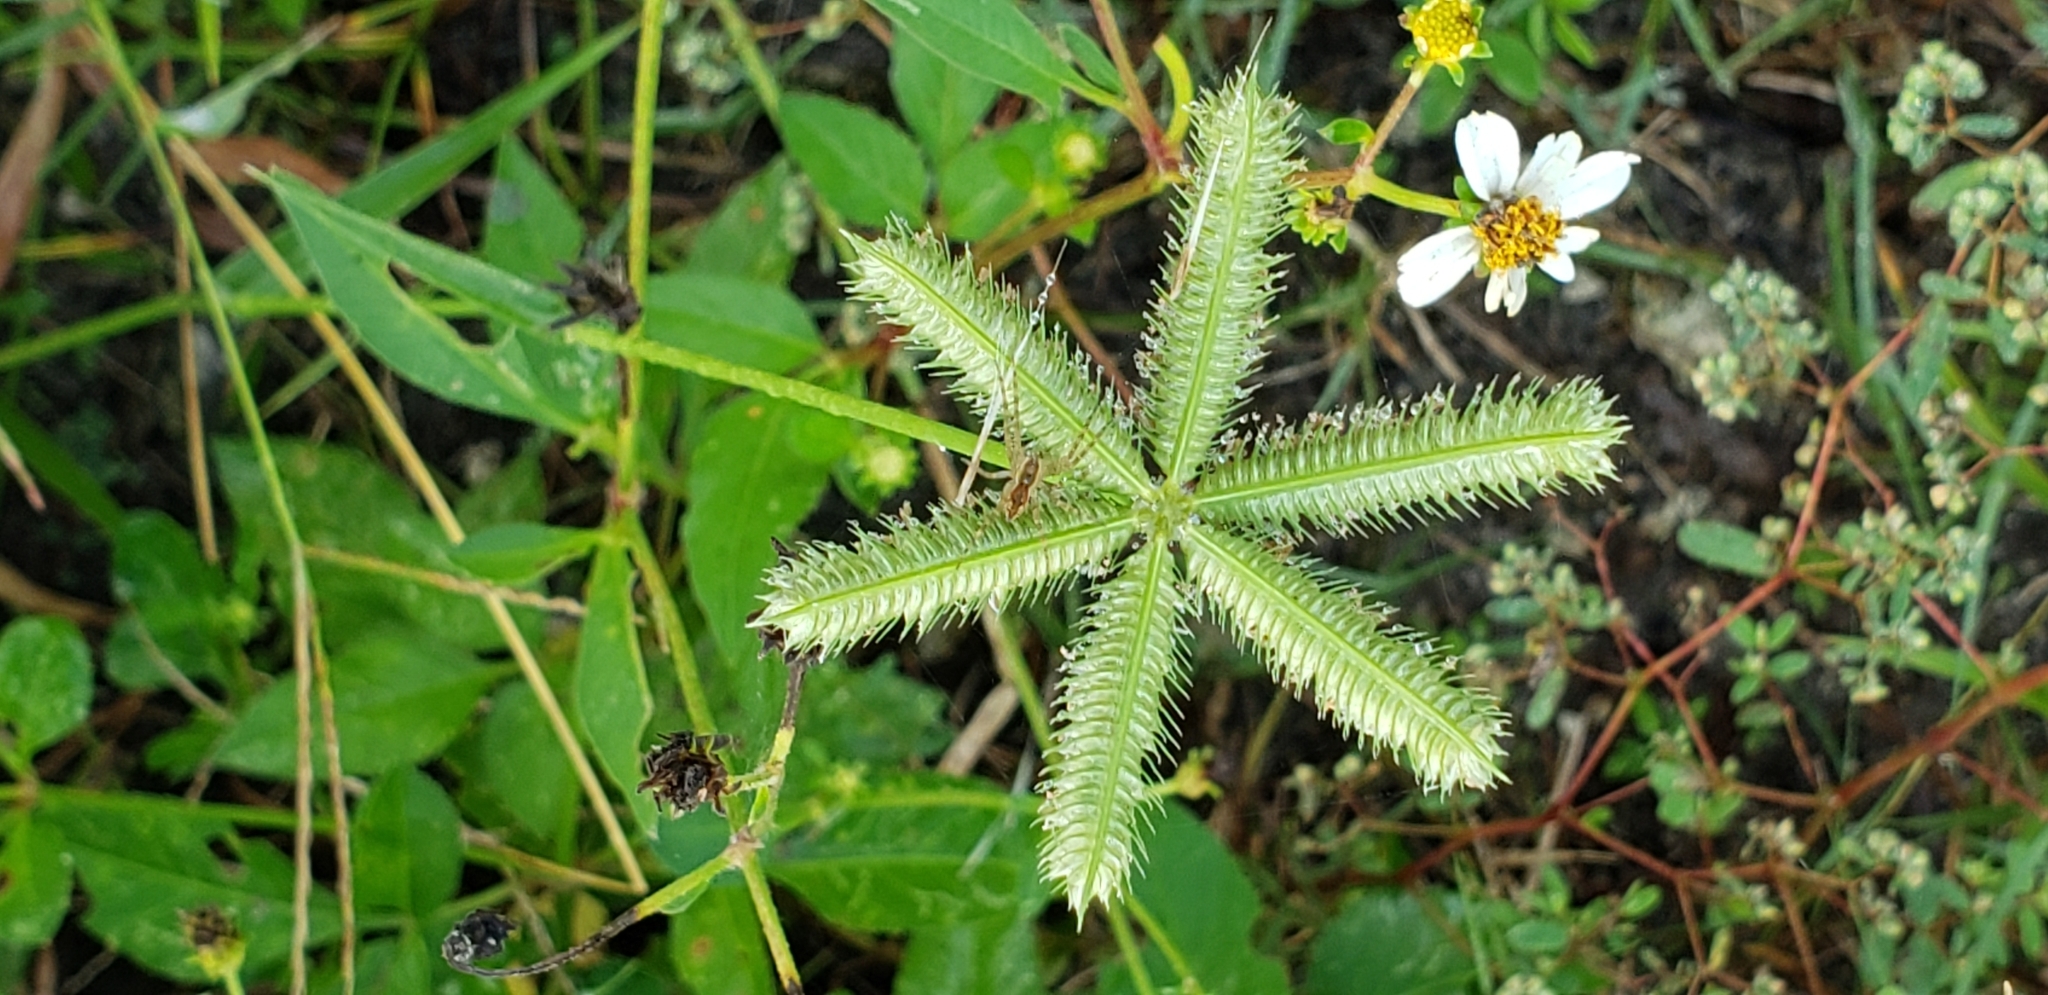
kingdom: Plantae
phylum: Tracheophyta
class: Liliopsida
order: Poales
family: Poaceae
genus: Dactyloctenium
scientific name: Dactyloctenium aegyptium
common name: Egyptian grass
